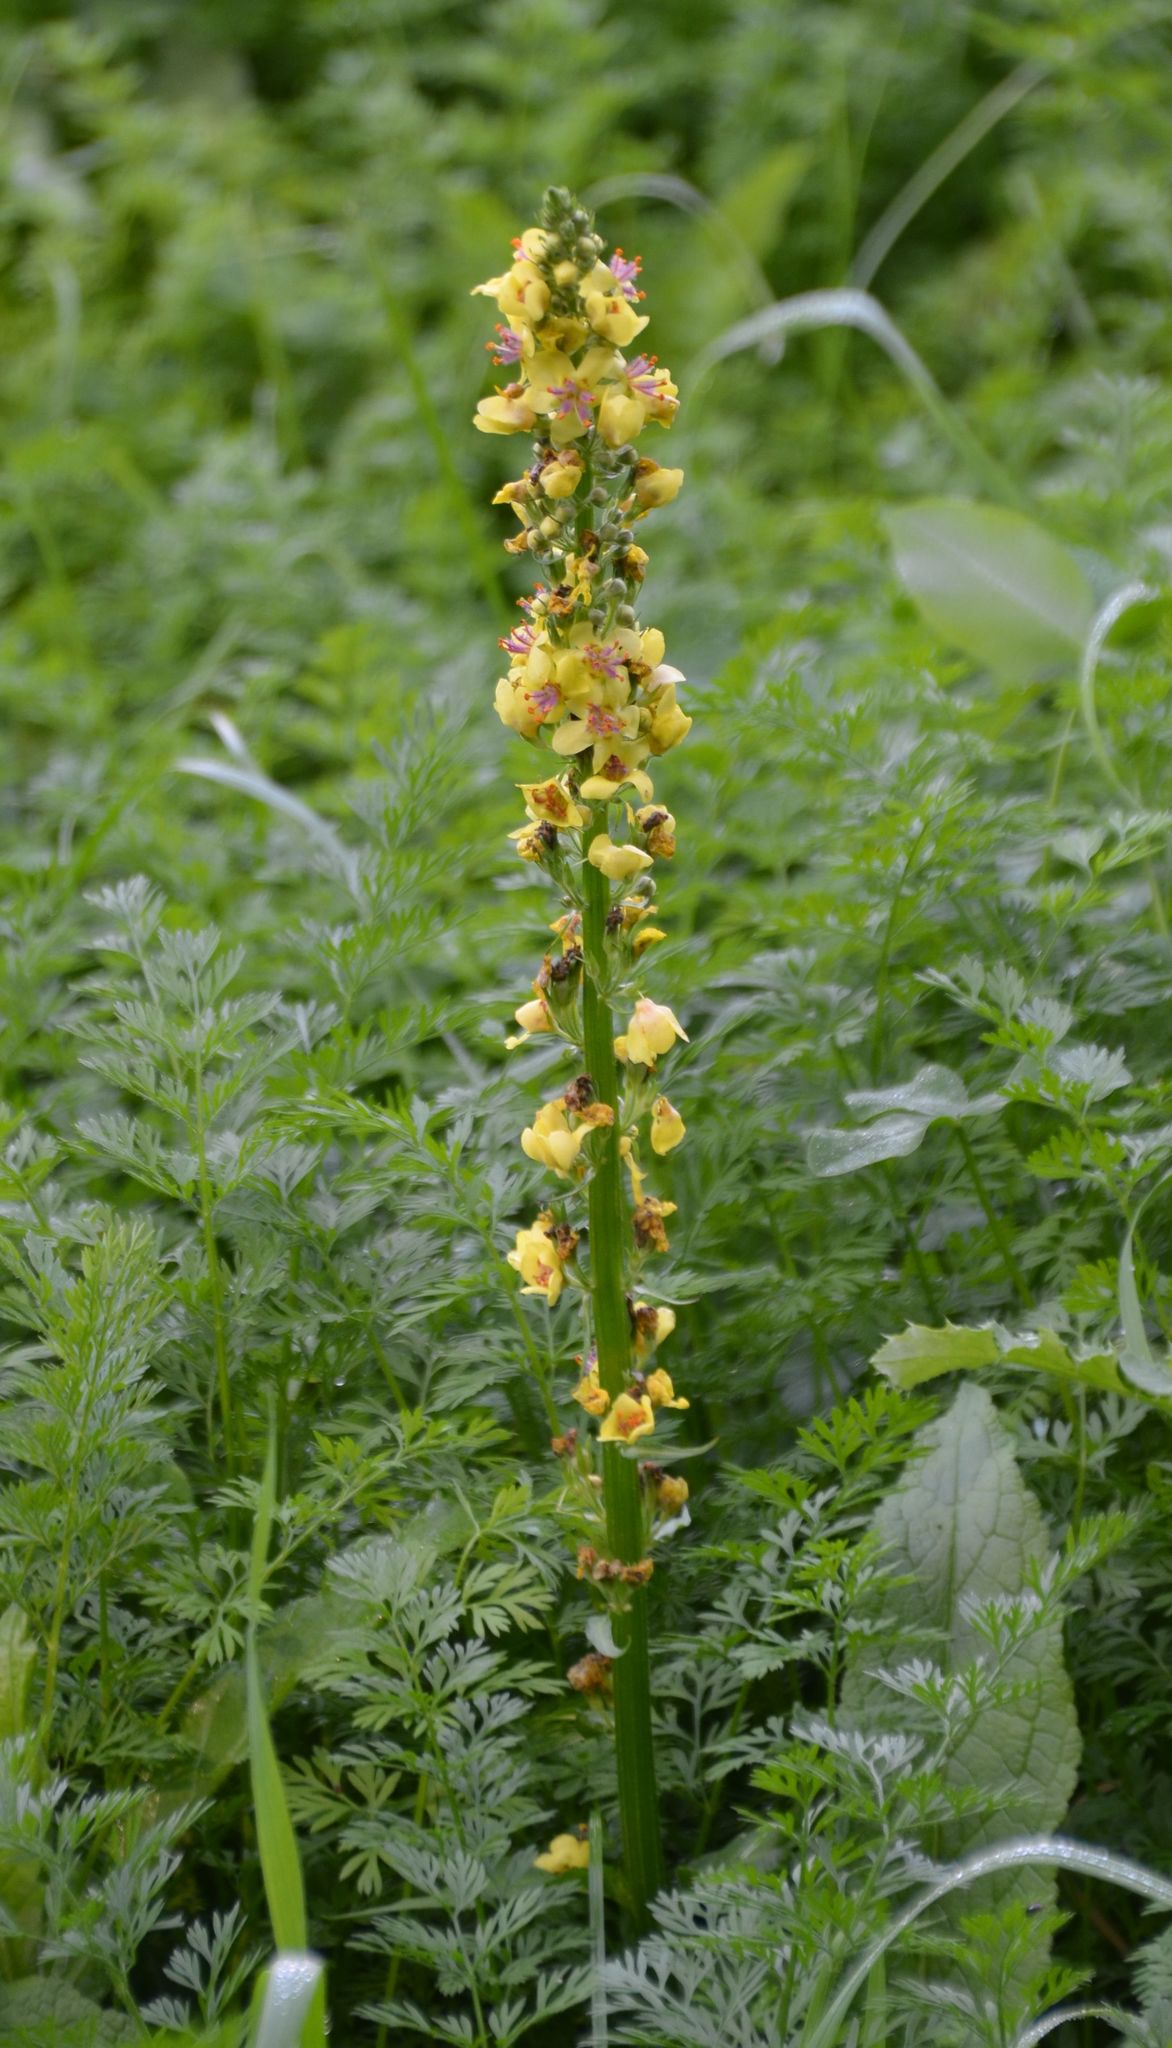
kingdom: Plantae
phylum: Tracheophyta
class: Magnoliopsida
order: Lamiales
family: Scrophulariaceae
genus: Verbascum
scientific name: Verbascum nigrum
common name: Dark mullein
